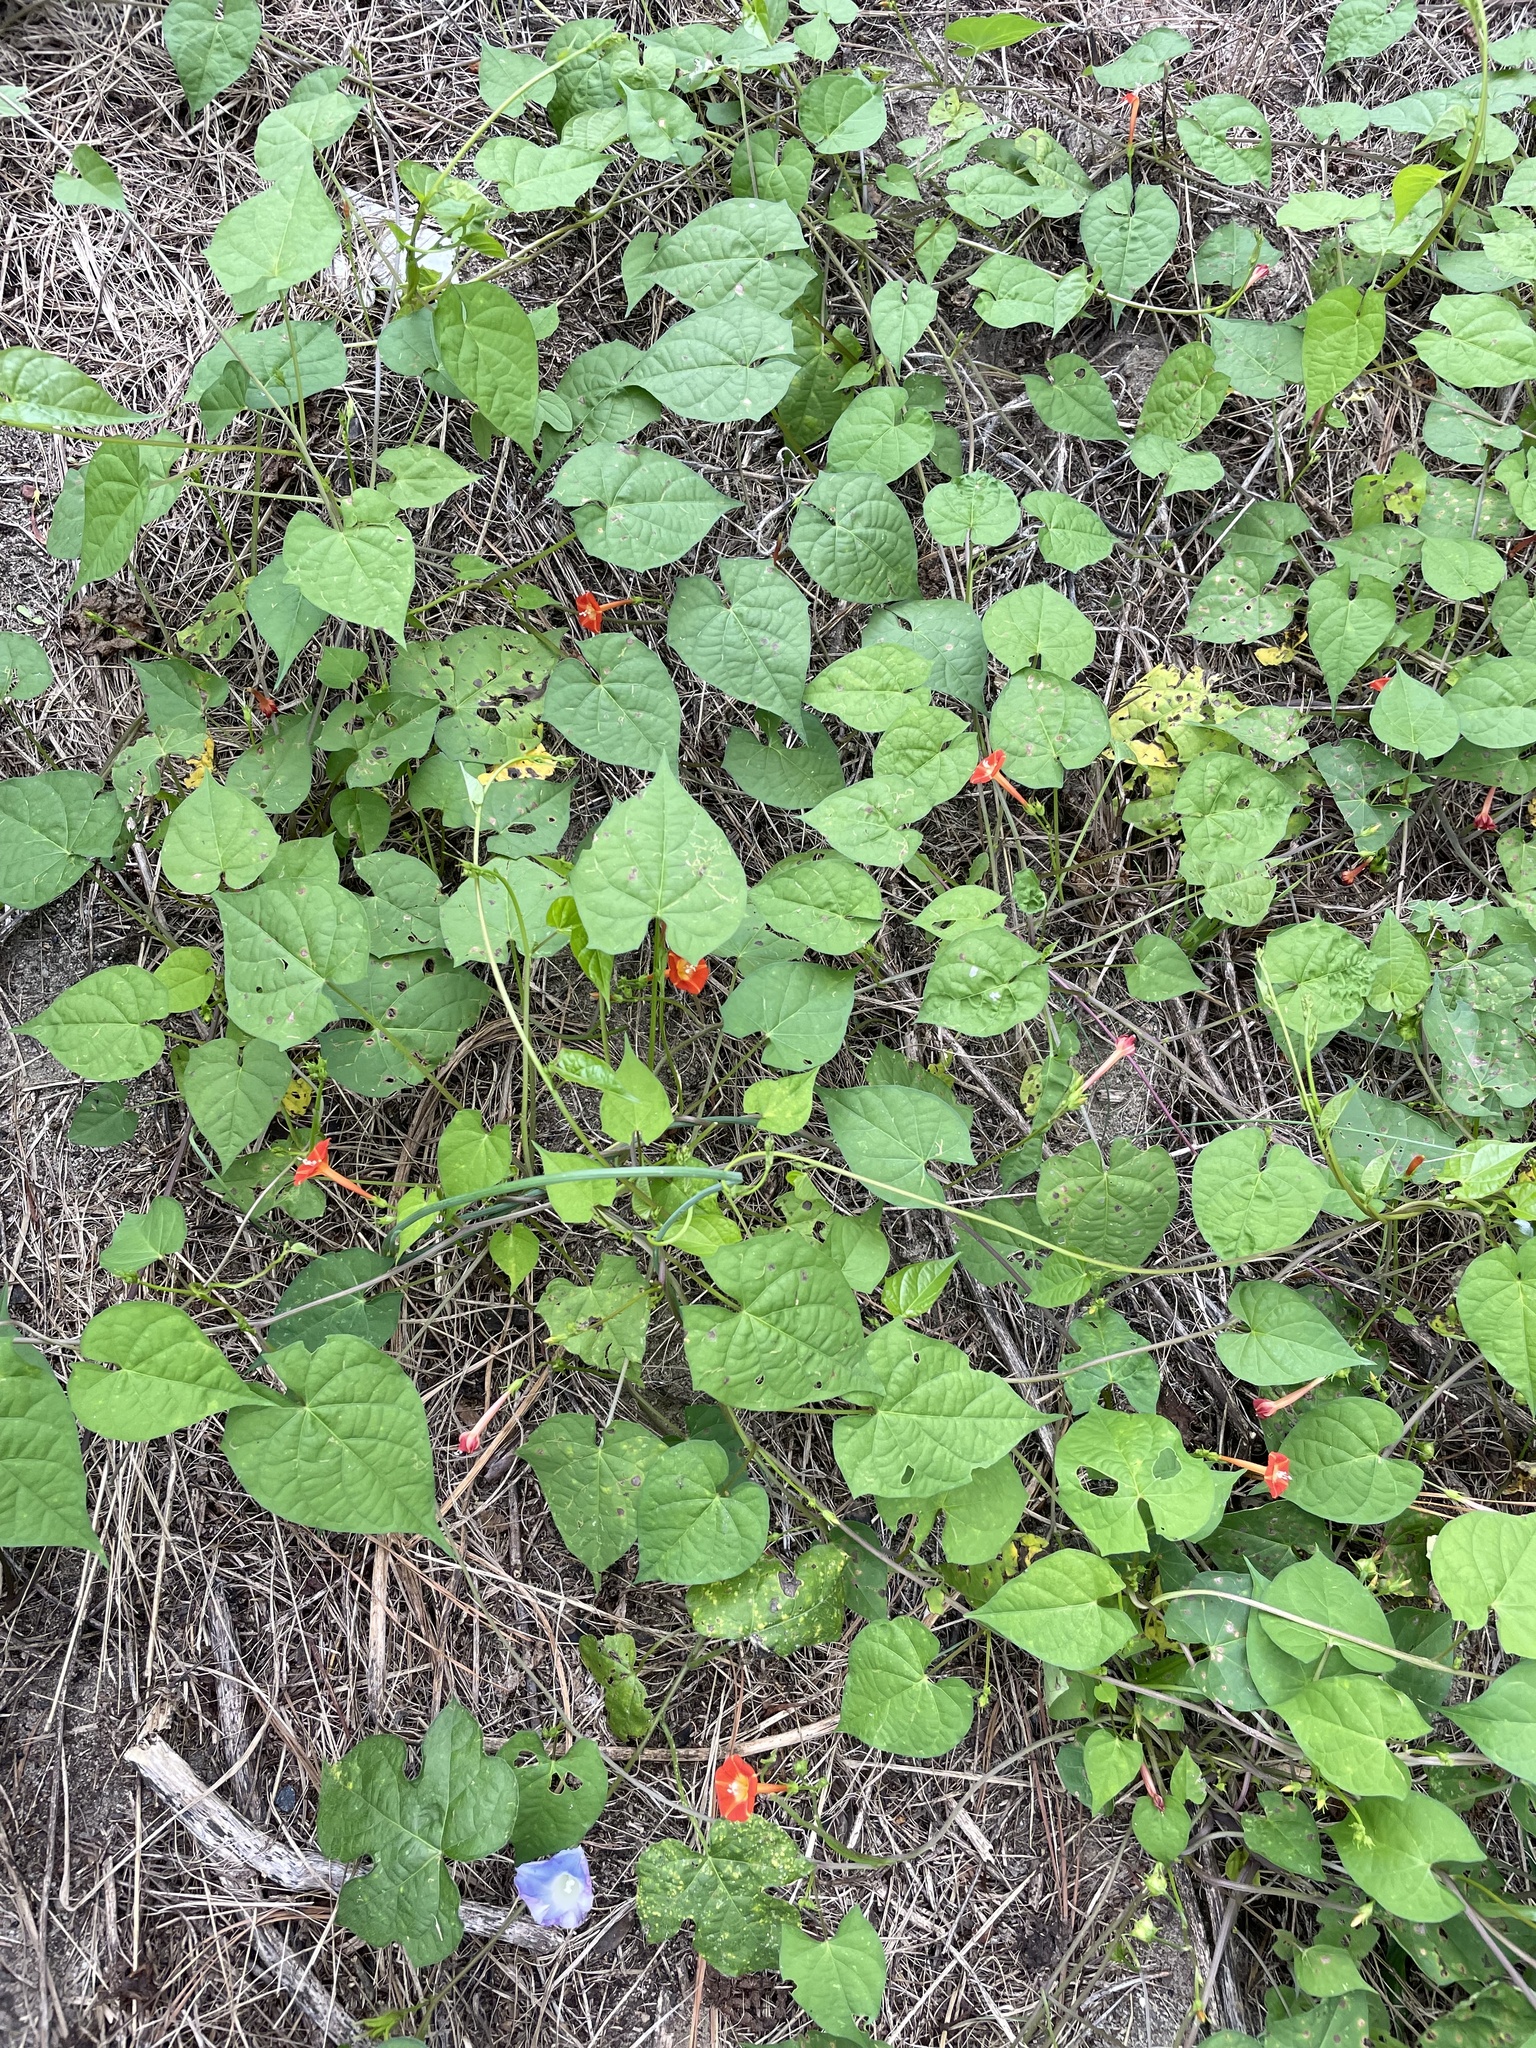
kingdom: Plantae
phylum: Tracheophyta
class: Magnoliopsida
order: Solanales
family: Convolvulaceae
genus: Ipomoea
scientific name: Ipomoea coccinea
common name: Red morning-glory
